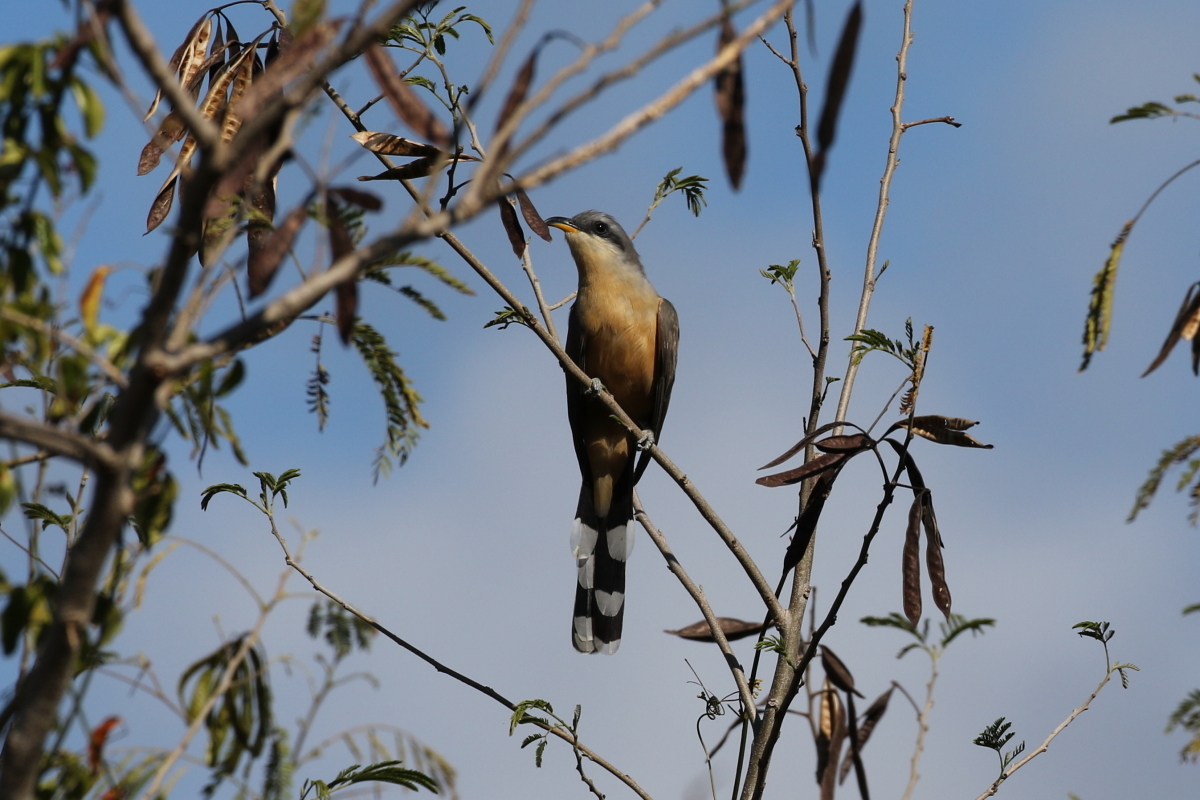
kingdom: Animalia
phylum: Chordata
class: Aves
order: Cuculiformes
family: Cuculidae
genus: Coccyzus
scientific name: Coccyzus minor
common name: Mangrove cuckoo
